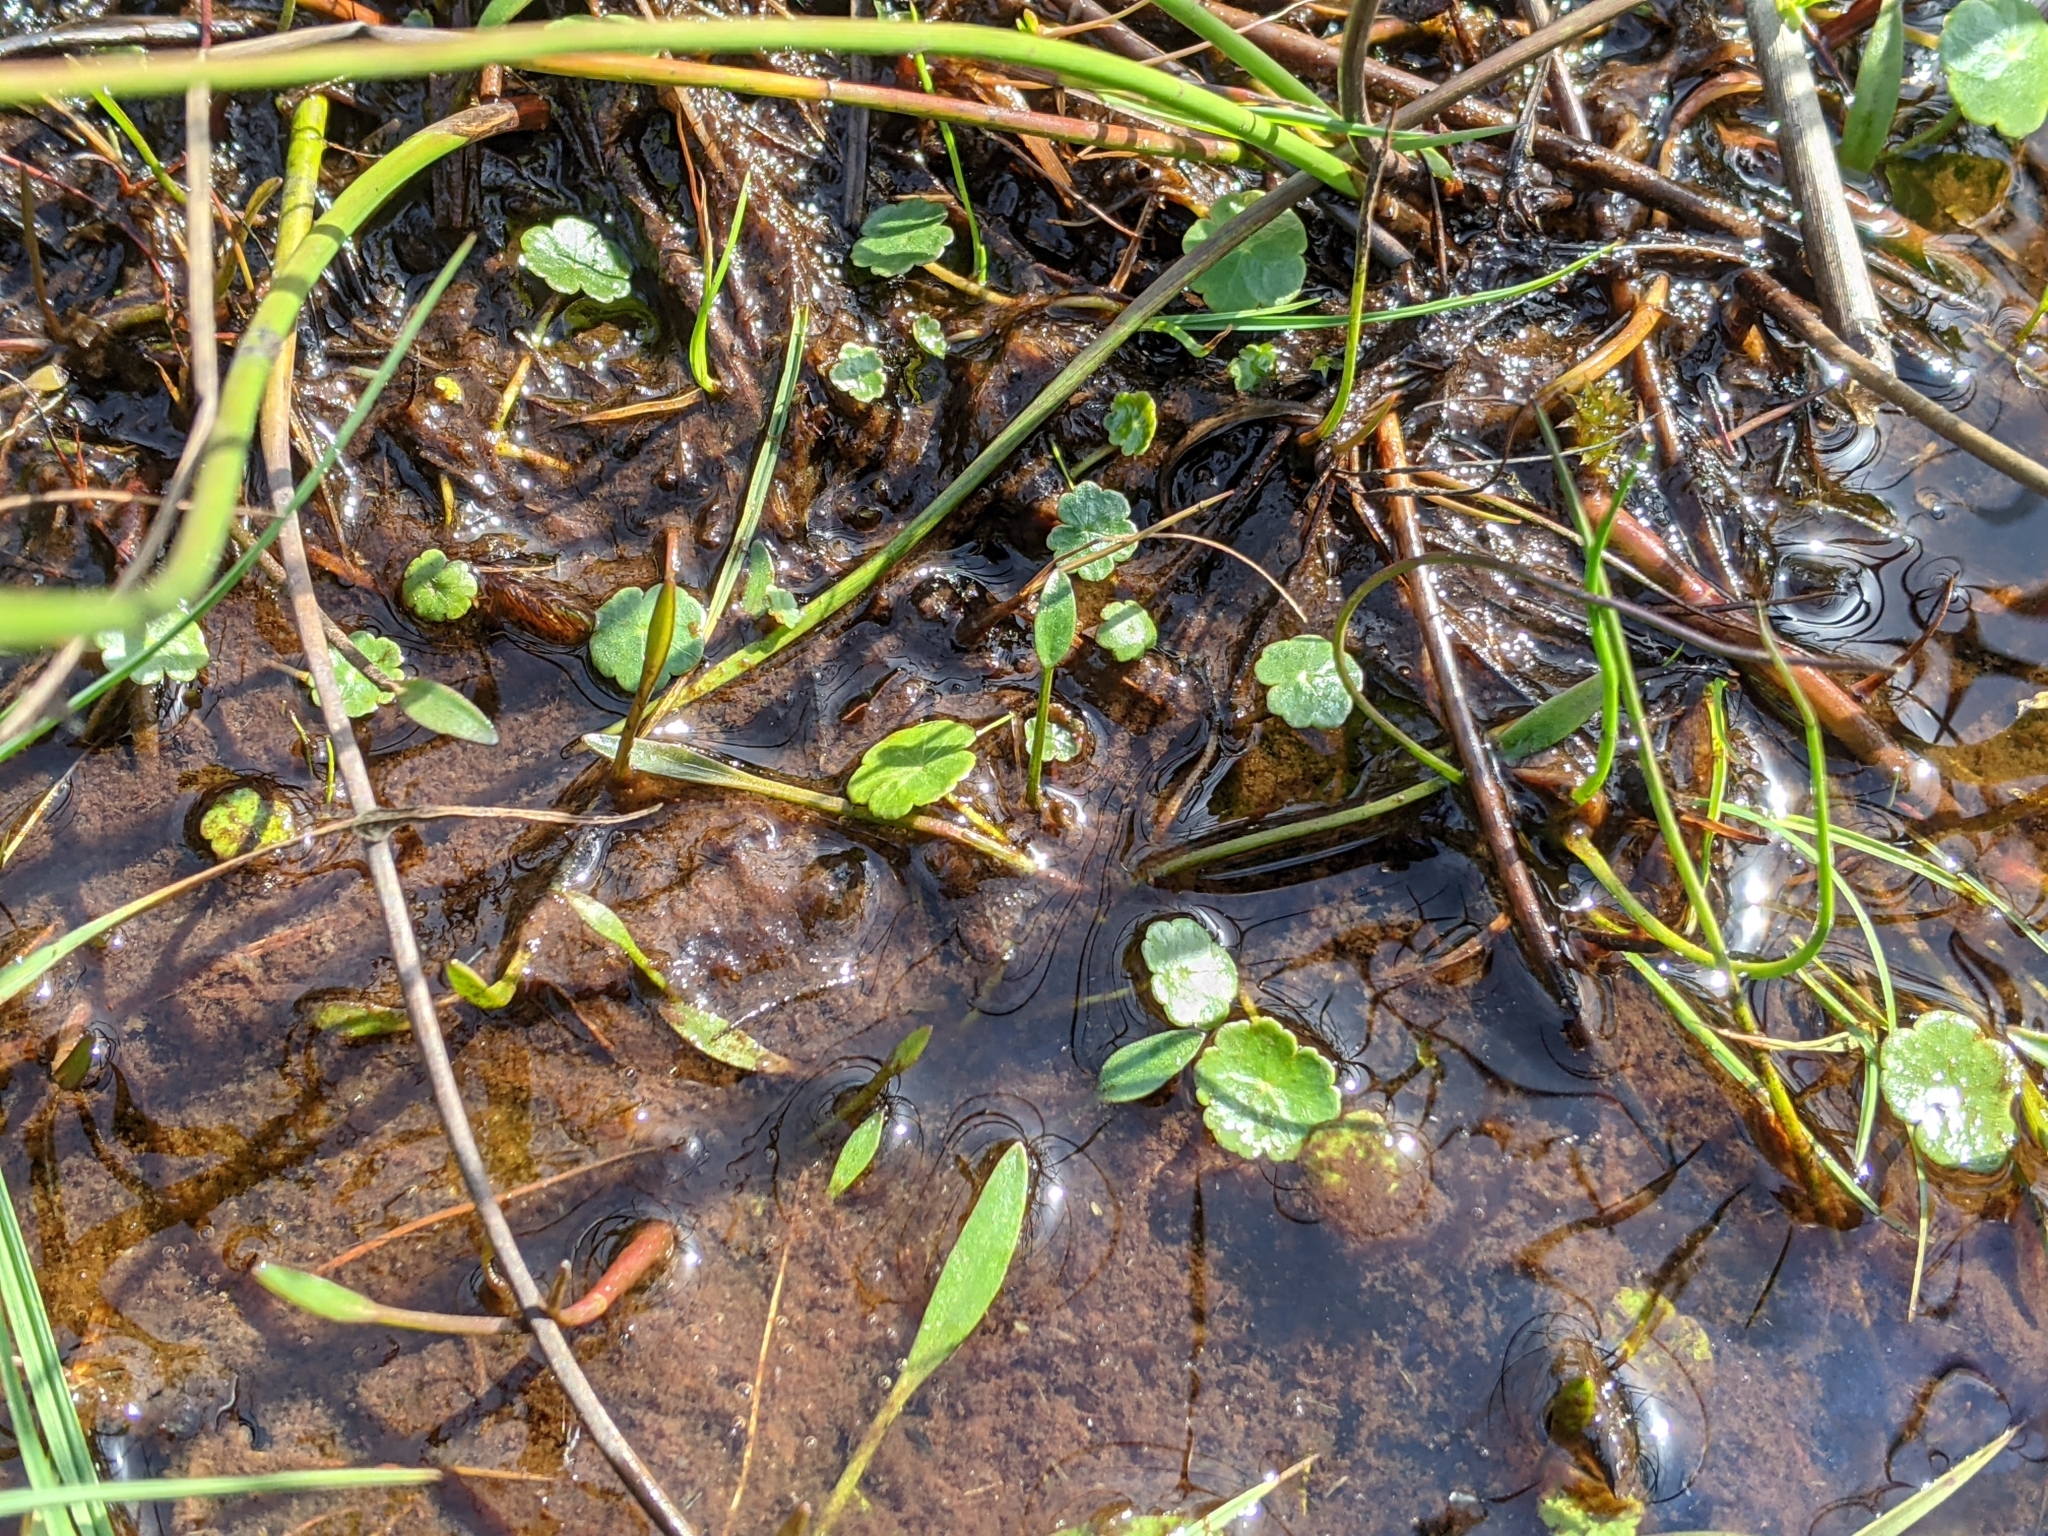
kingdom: Plantae
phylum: Tracheophyta
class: Magnoliopsida
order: Apiales
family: Araliaceae
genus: Hydrocotyle
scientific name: Hydrocotyle vulgaris
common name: Marsh pennywort
